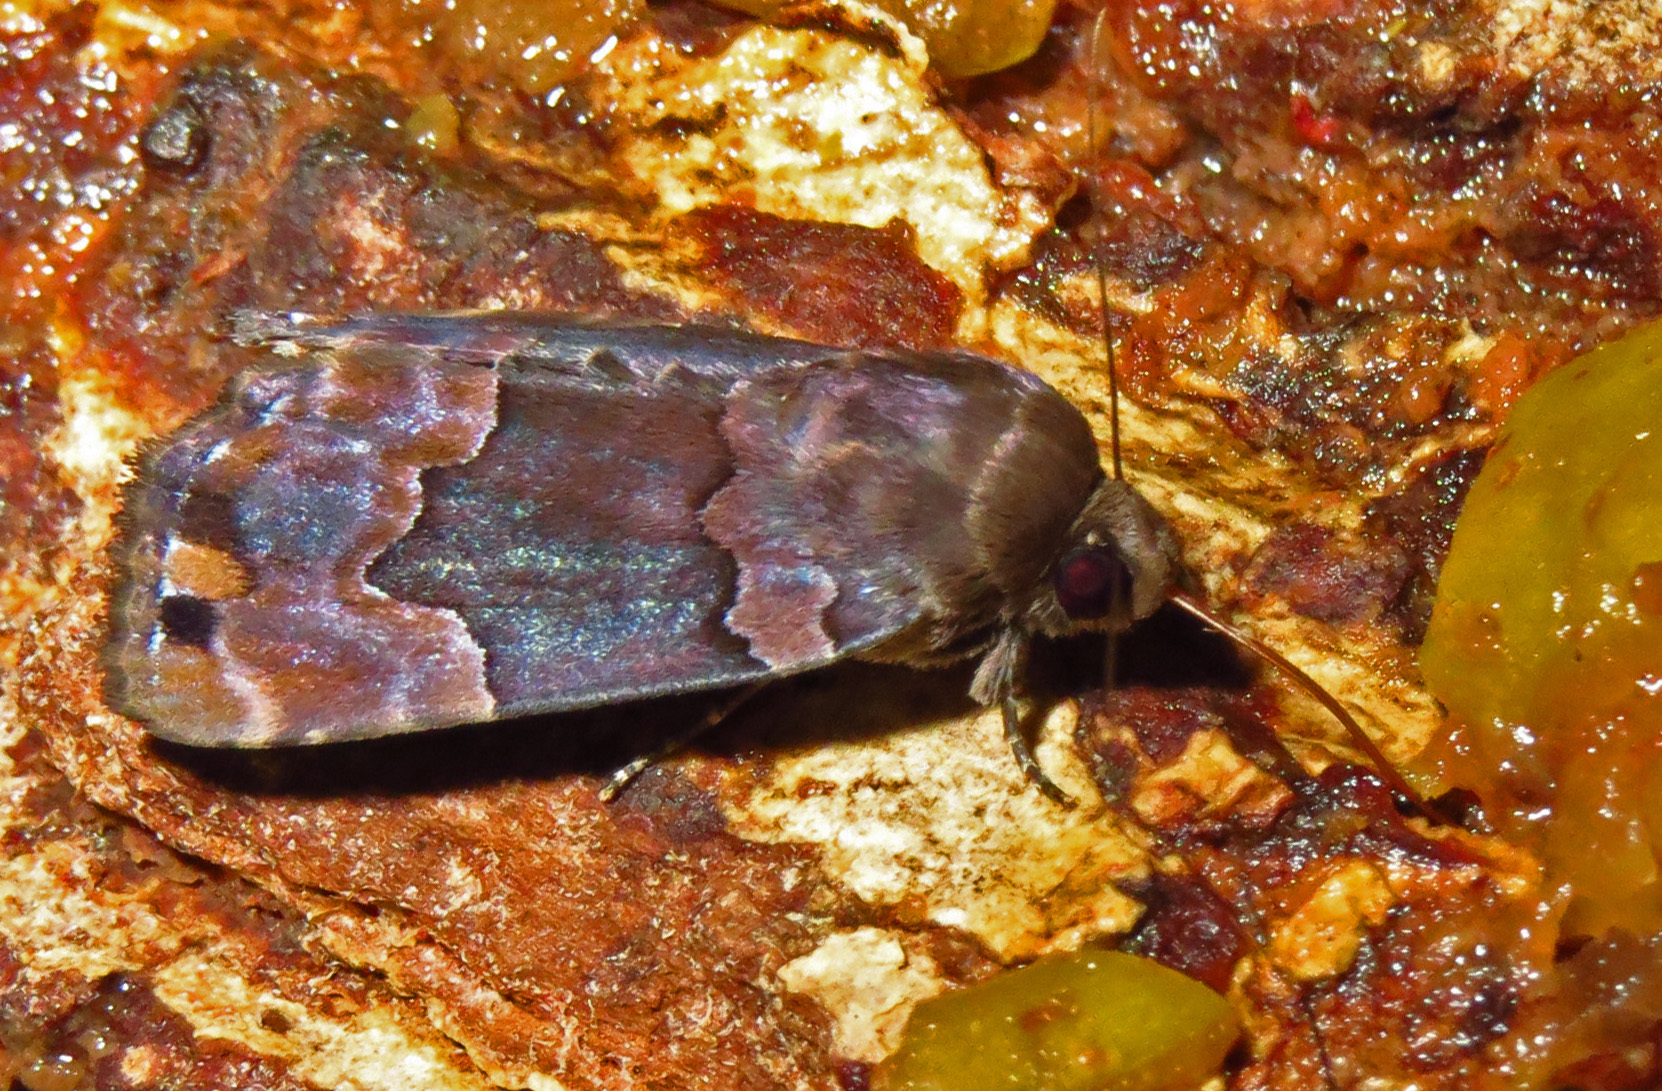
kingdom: Animalia
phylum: Arthropoda
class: Insecta
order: Lepidoptera
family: Erebidae
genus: Dinumma
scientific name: Dinumma deponens
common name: Purplish moth
